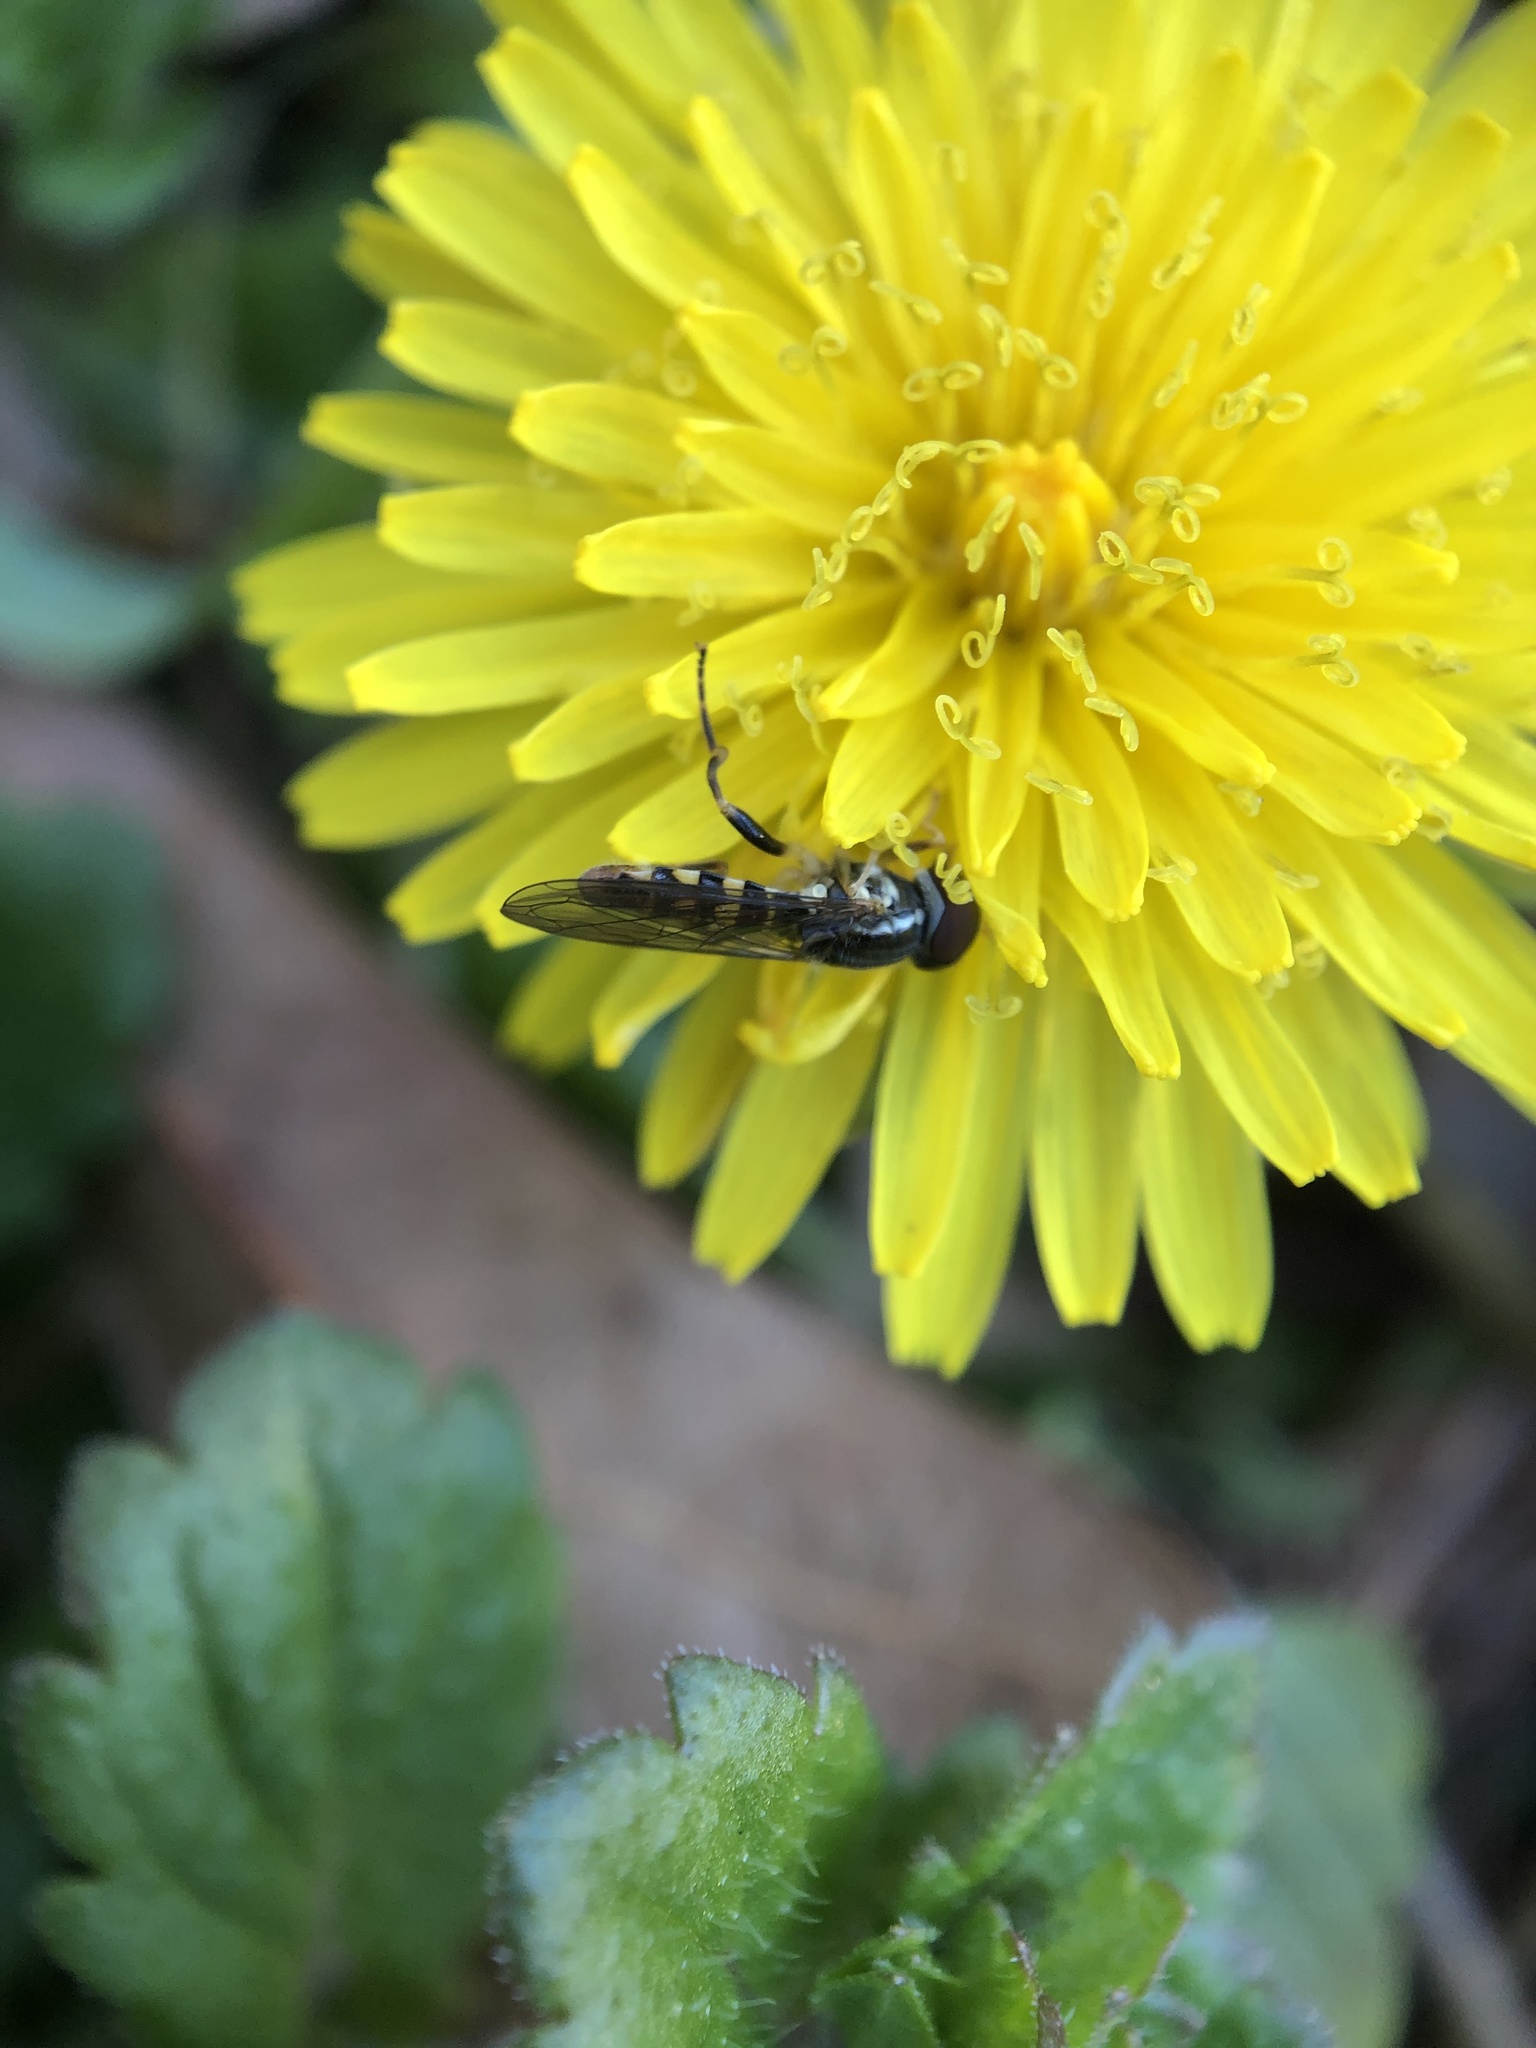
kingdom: Animalia
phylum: Arthropoda
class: Insecta
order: Diptera
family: Syrphidae
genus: Toxomerus
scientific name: Toxomerus geminatus
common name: Eastern calligrapher
